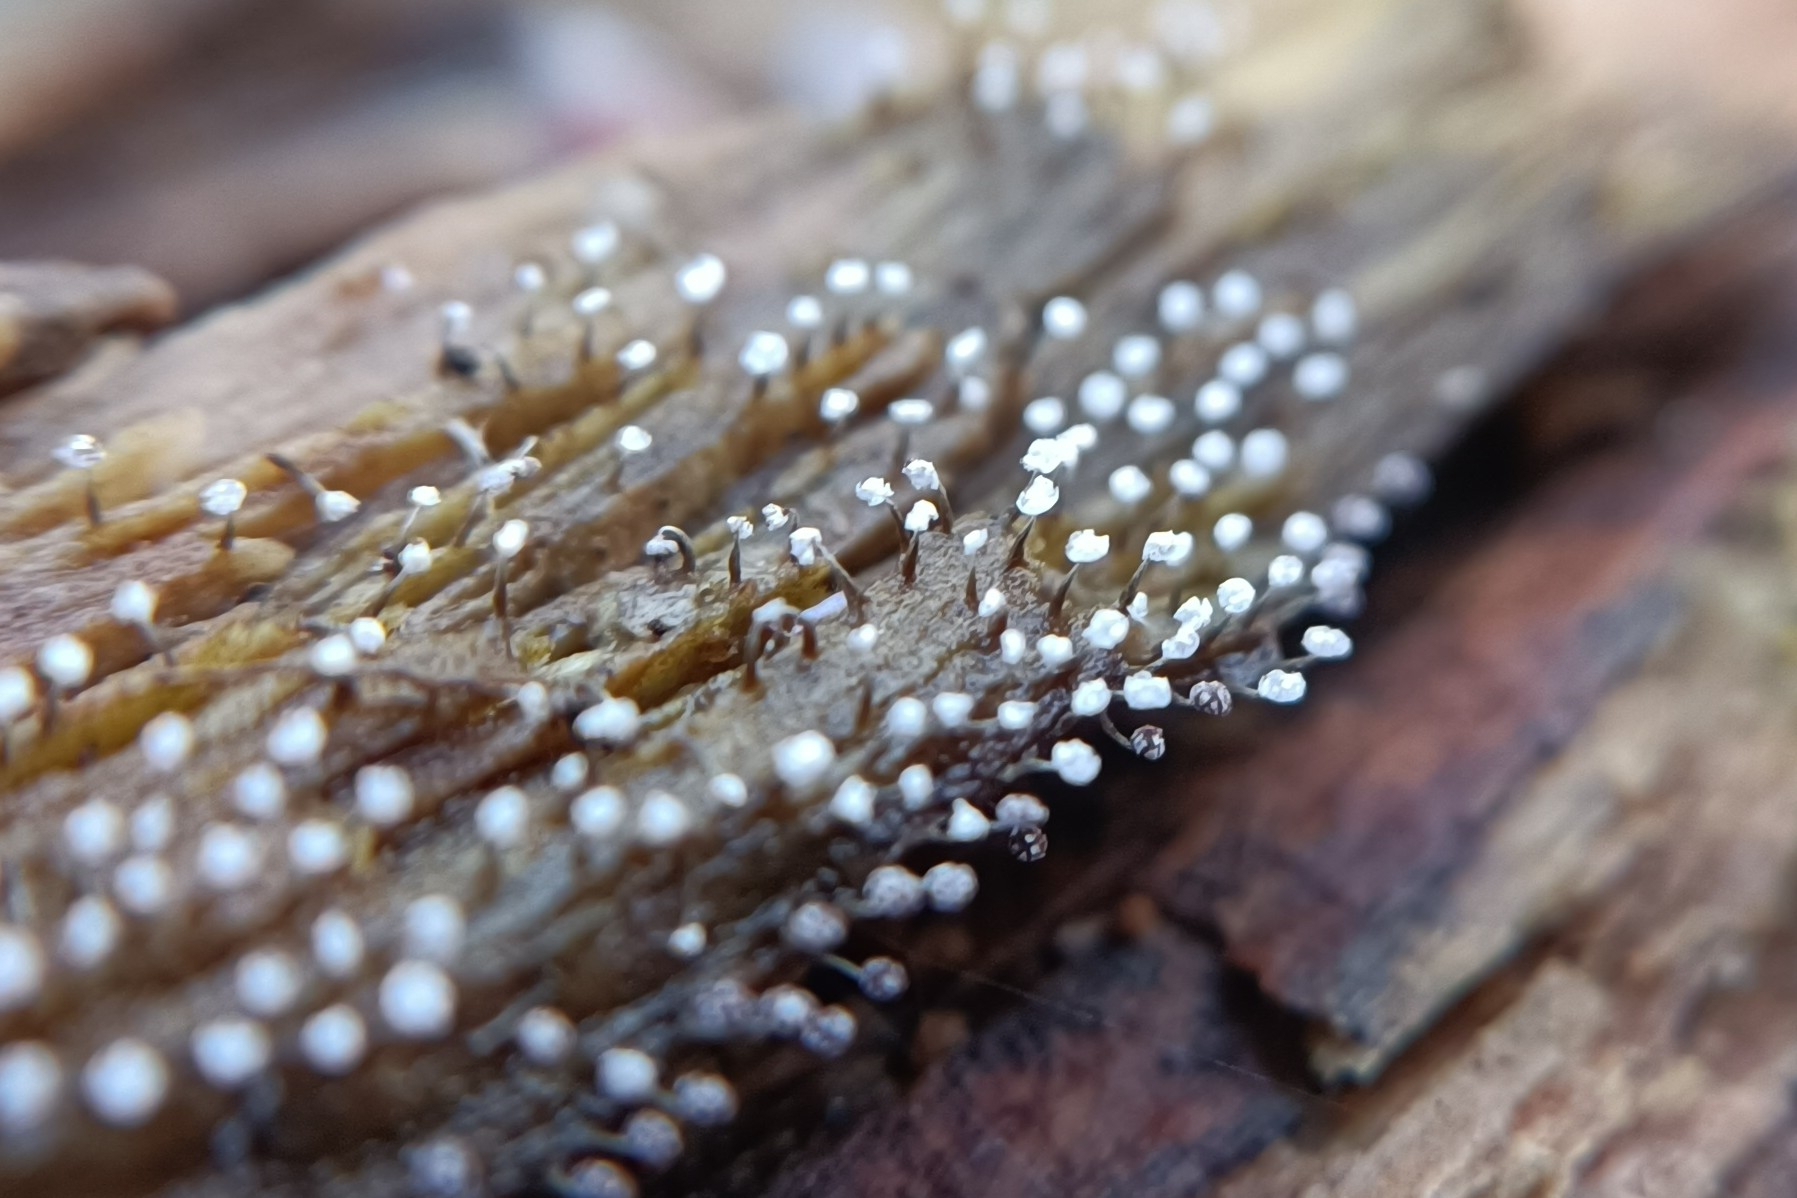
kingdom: Protozoa
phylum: Mycetozoa
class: Myxomycetes
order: Physarales
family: Physaraceae
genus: Physarum
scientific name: Physarum album
